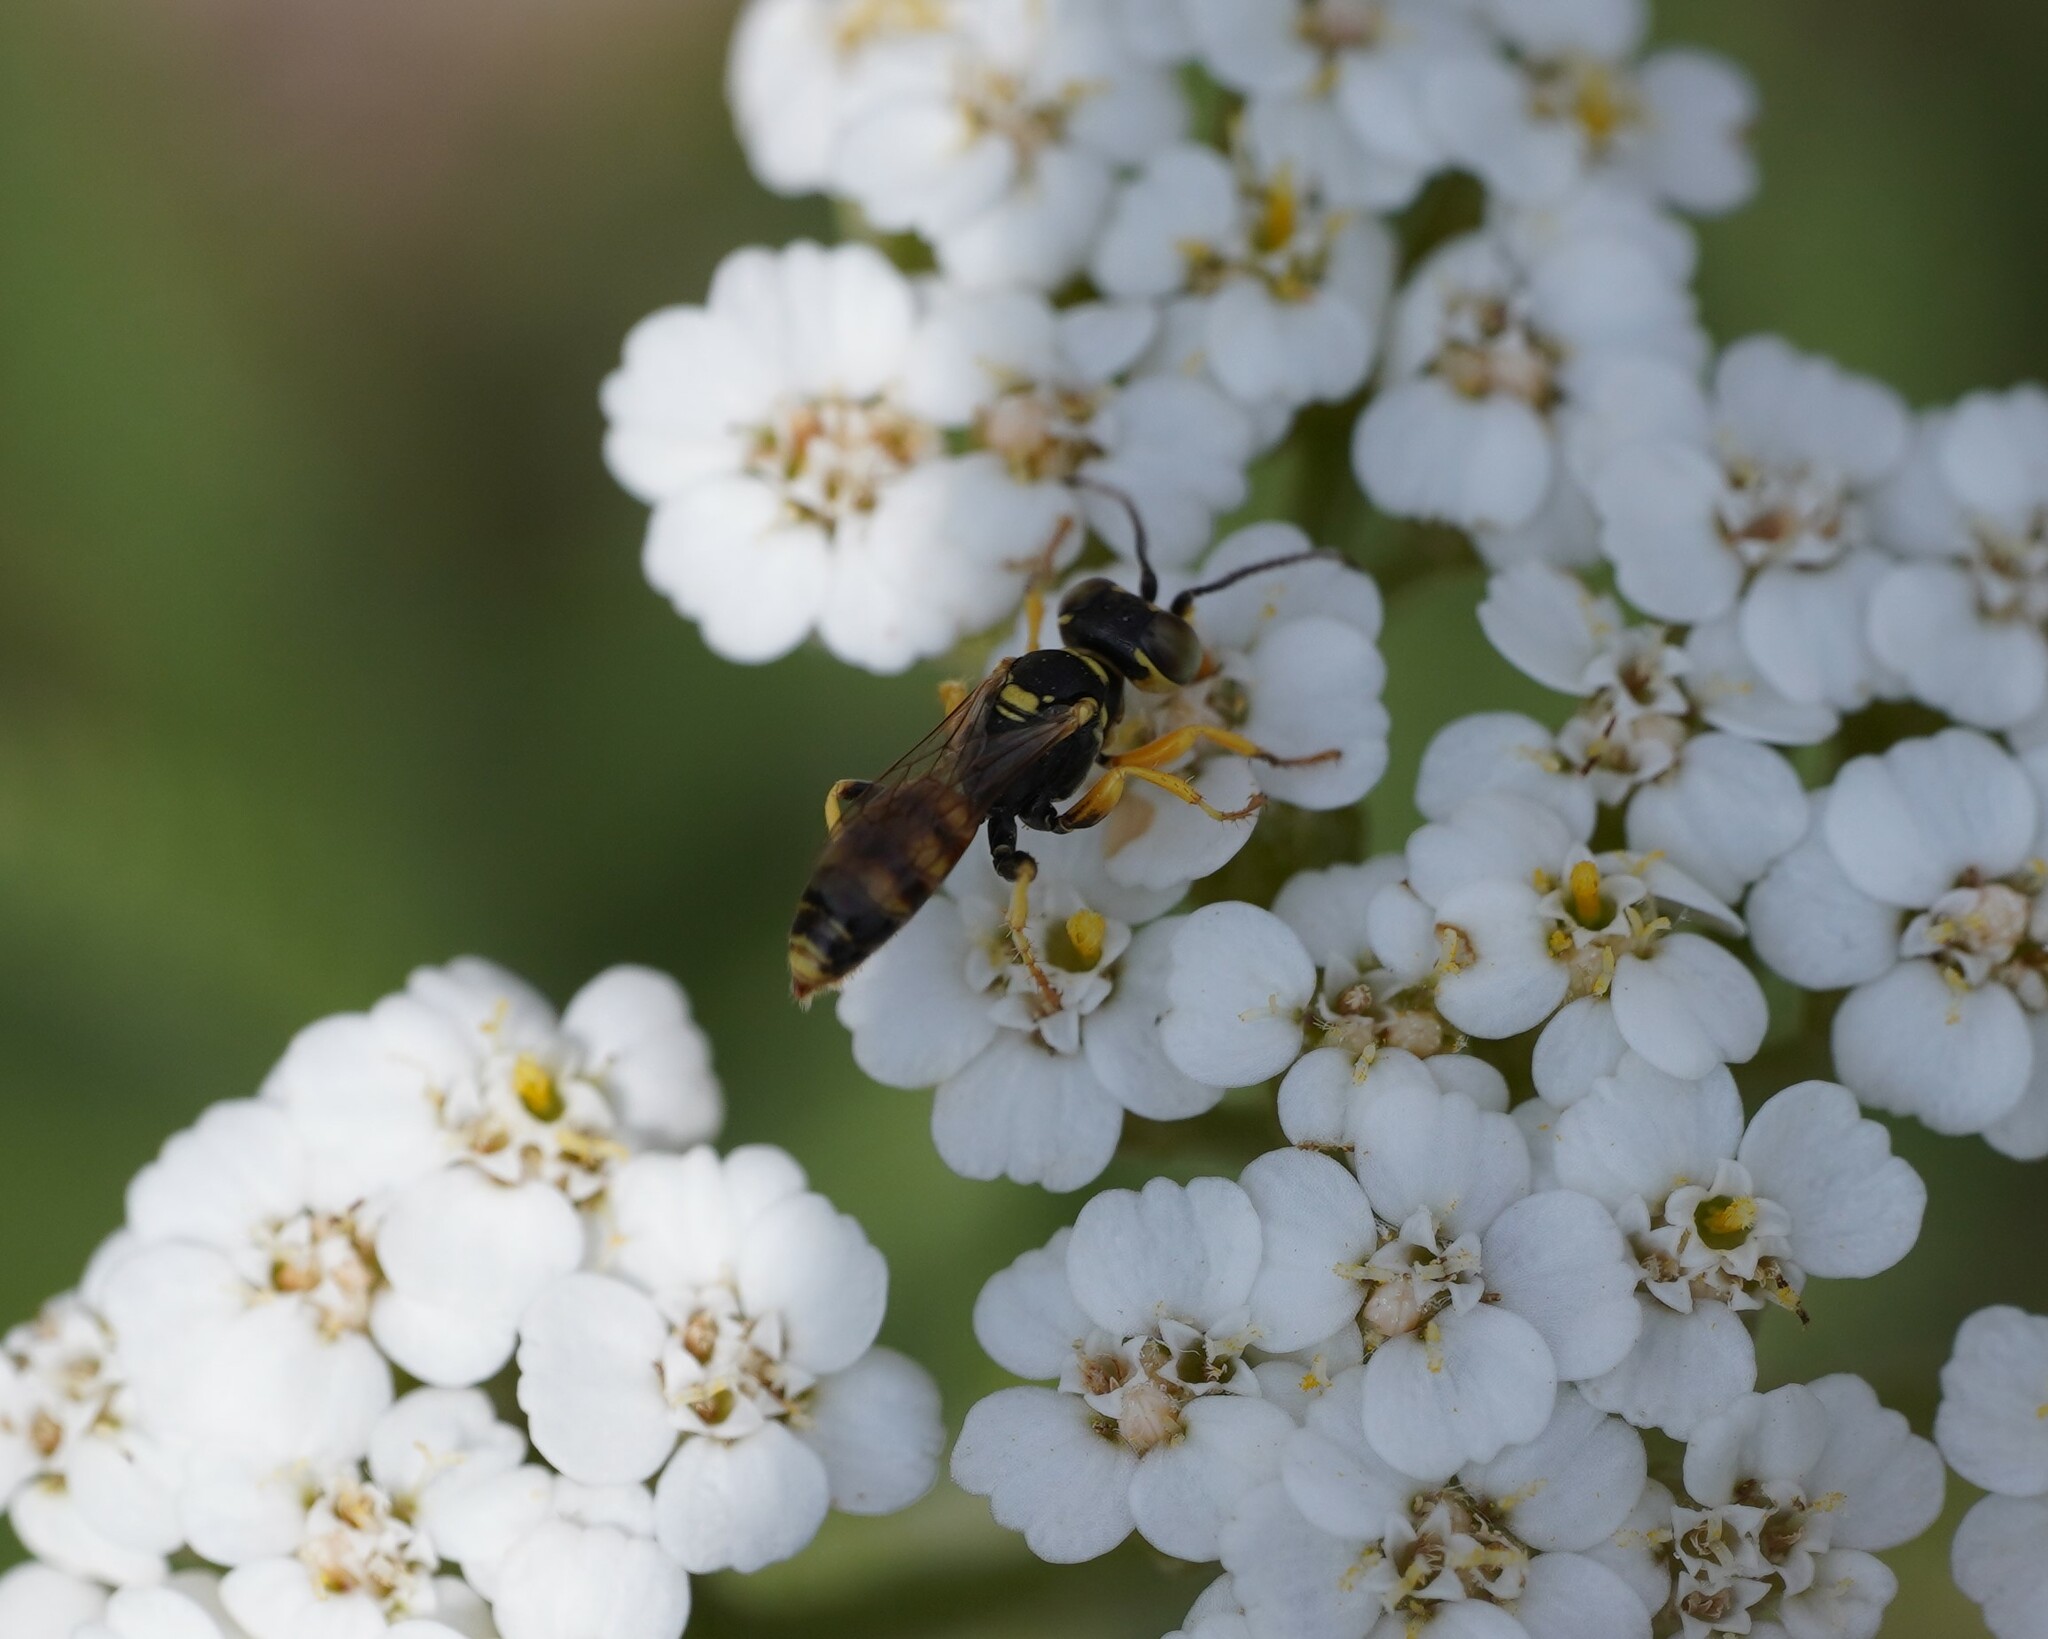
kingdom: Animalia
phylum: Arthropoda
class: Insecta
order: Hymenoptera
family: Crabronidae
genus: Dinetus
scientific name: Dinetus pictus
